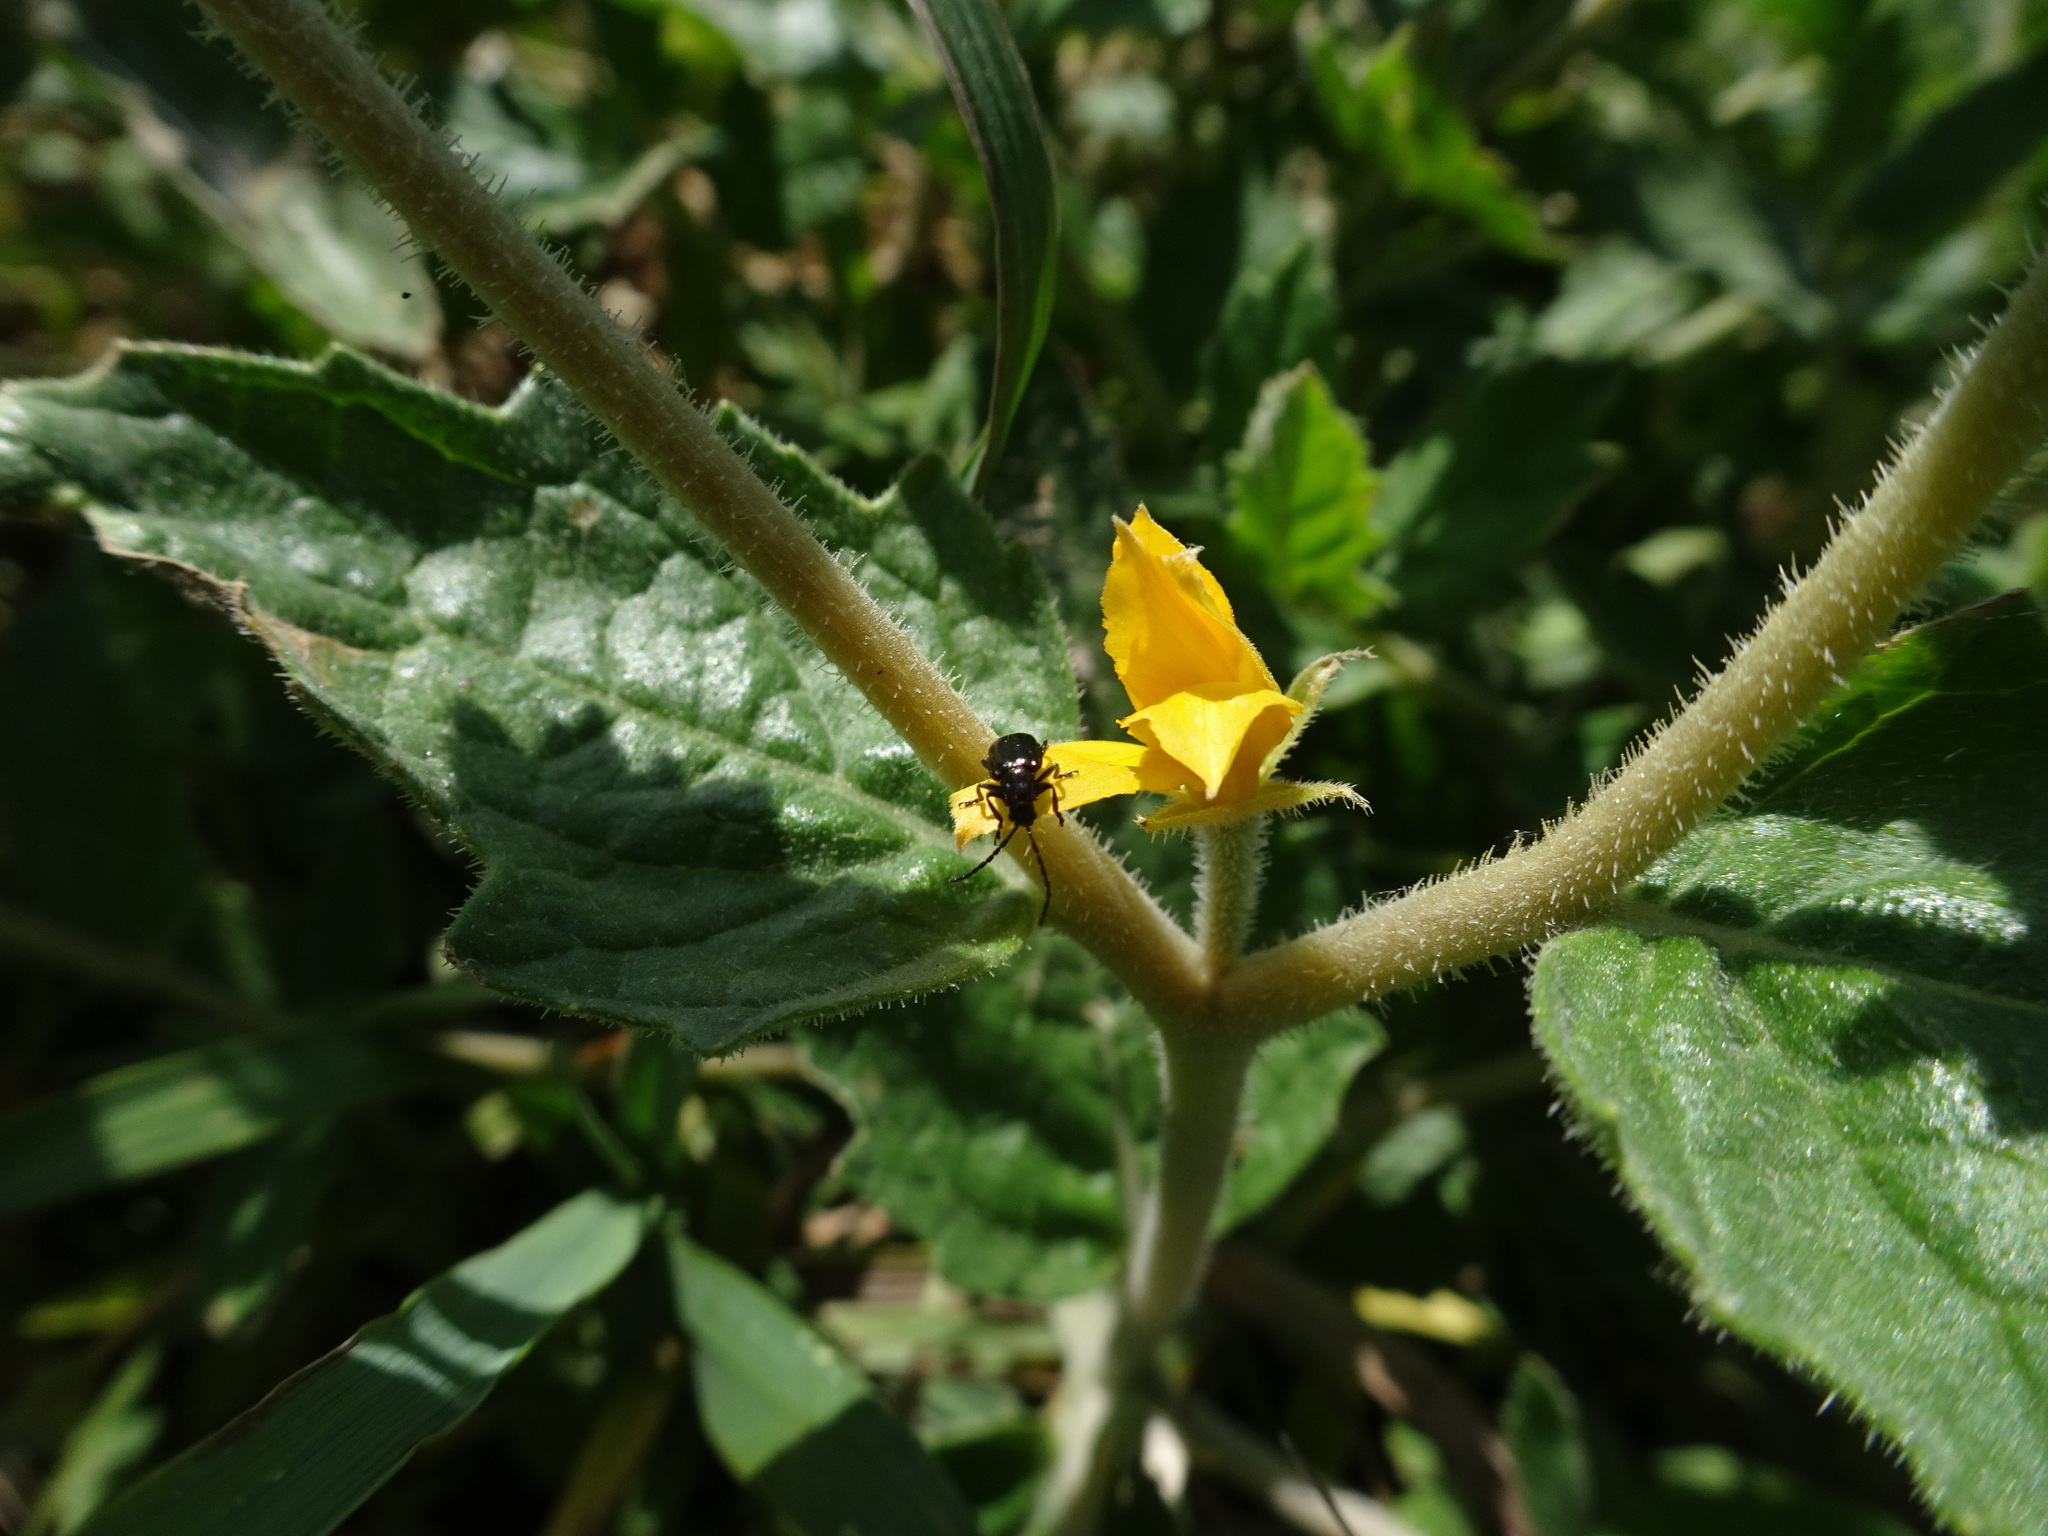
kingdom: Plantae
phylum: Tracheophyta
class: Magnoliopsida
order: Cornales
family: Loasaceae
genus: Mentzelia
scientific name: Mentzelia oligosperma
